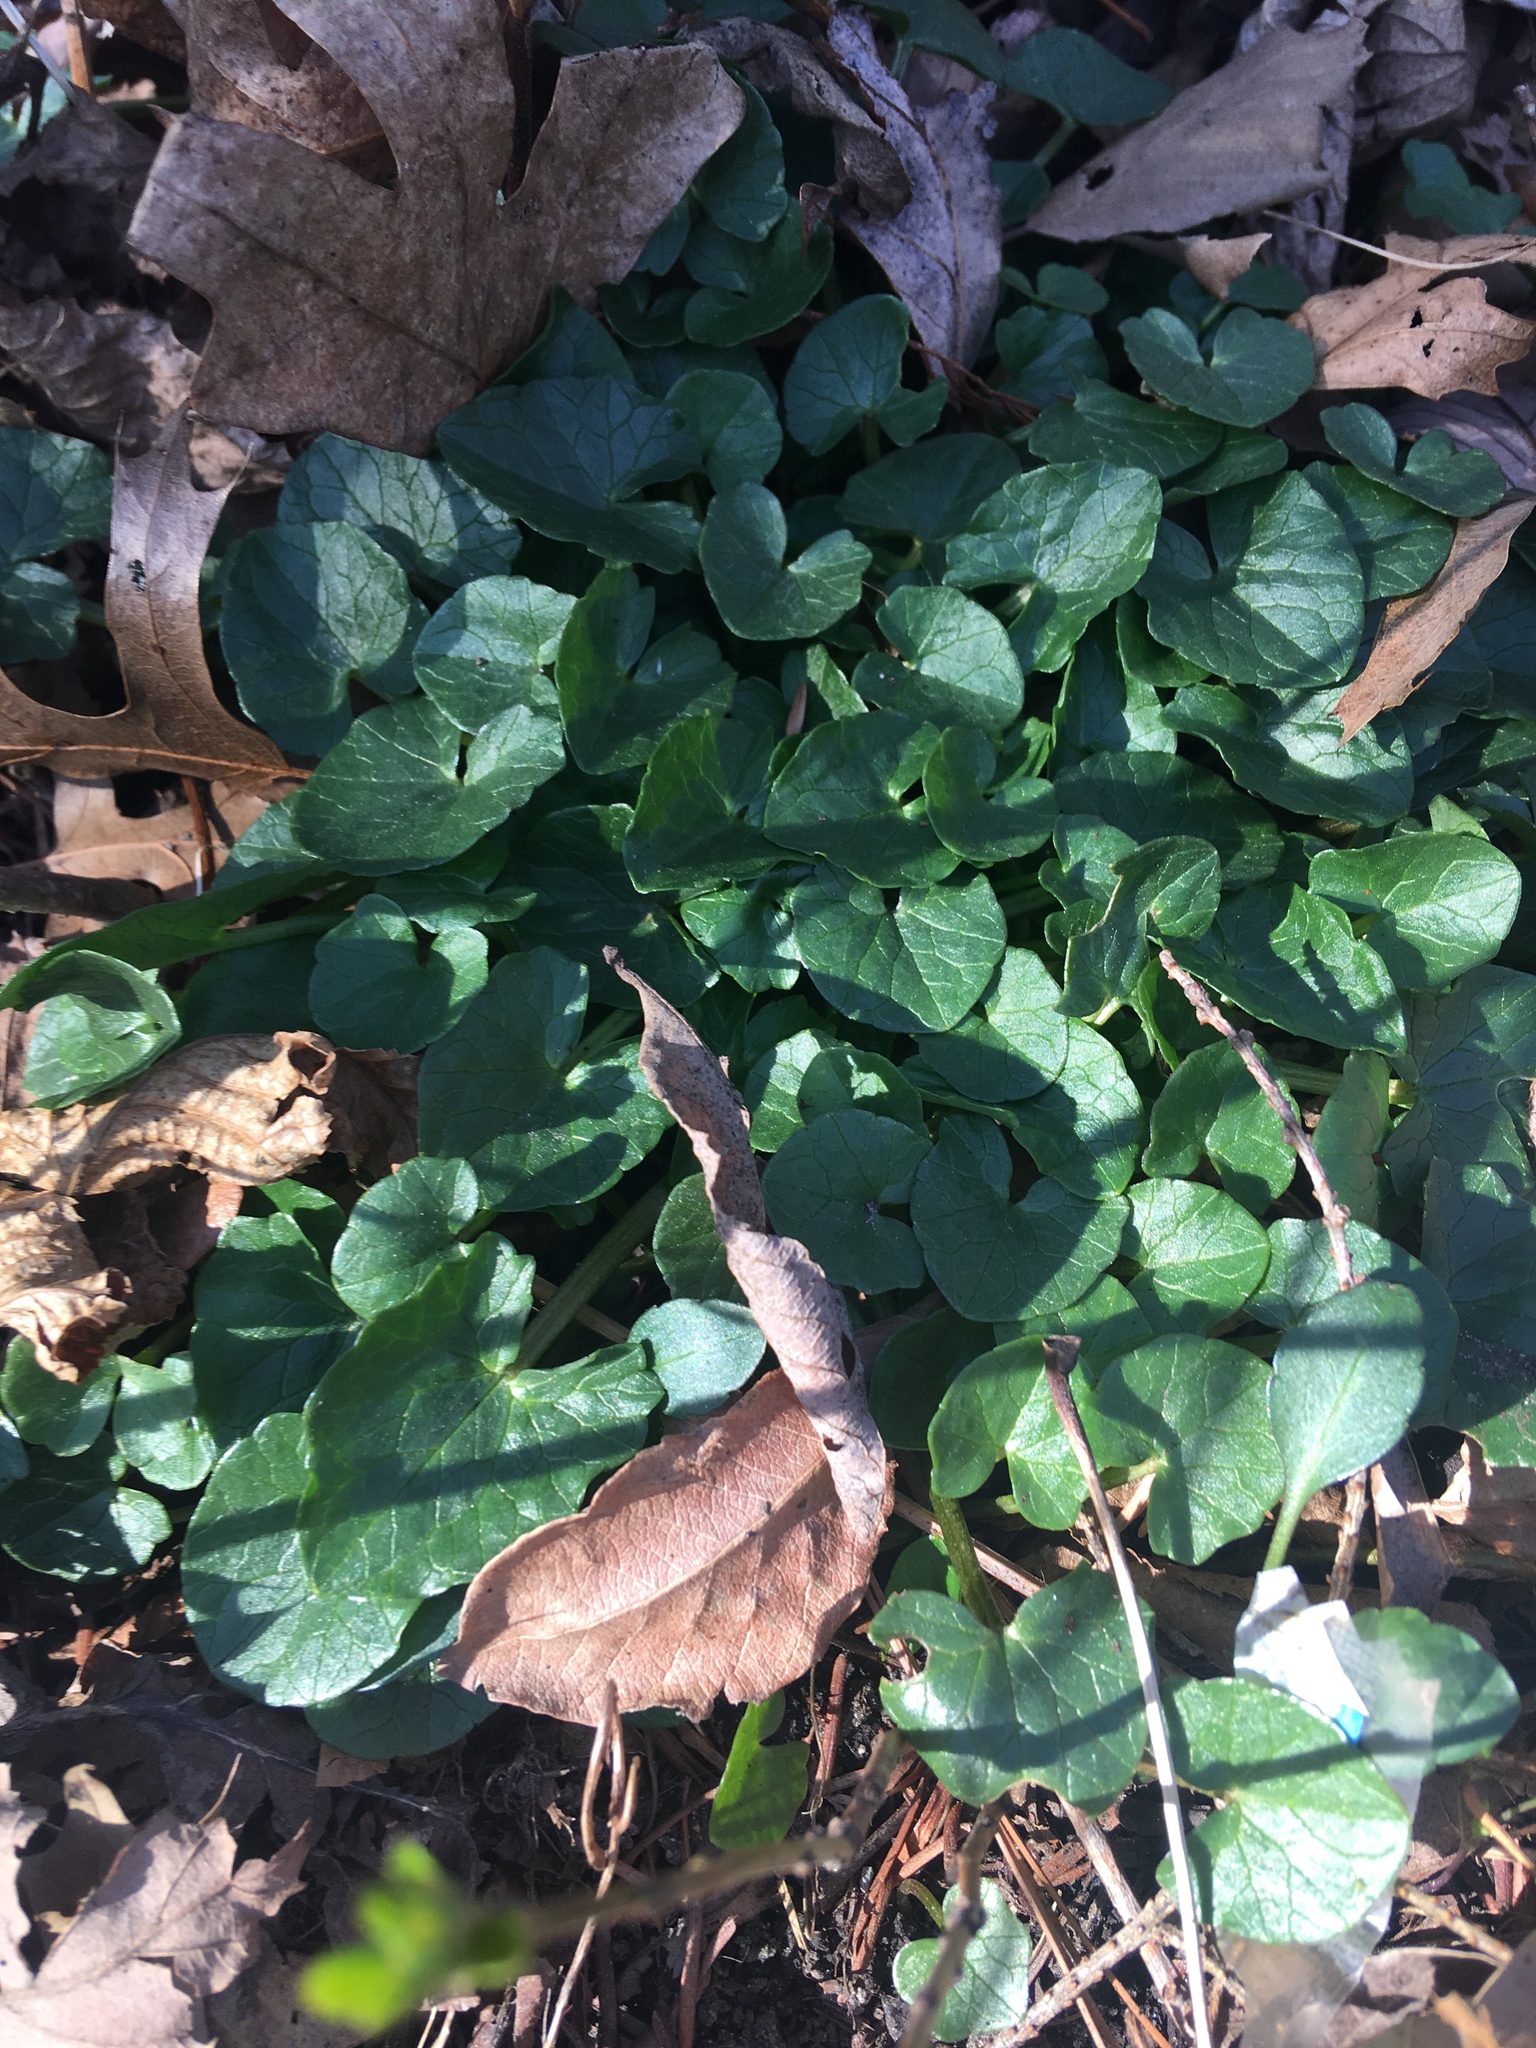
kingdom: Plantae
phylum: Tracheophyta
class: Magnoliopsida
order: Ranunculales
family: Ranunculaceae
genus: Ficaria
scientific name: Ficaria verna
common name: Lesser celandine
